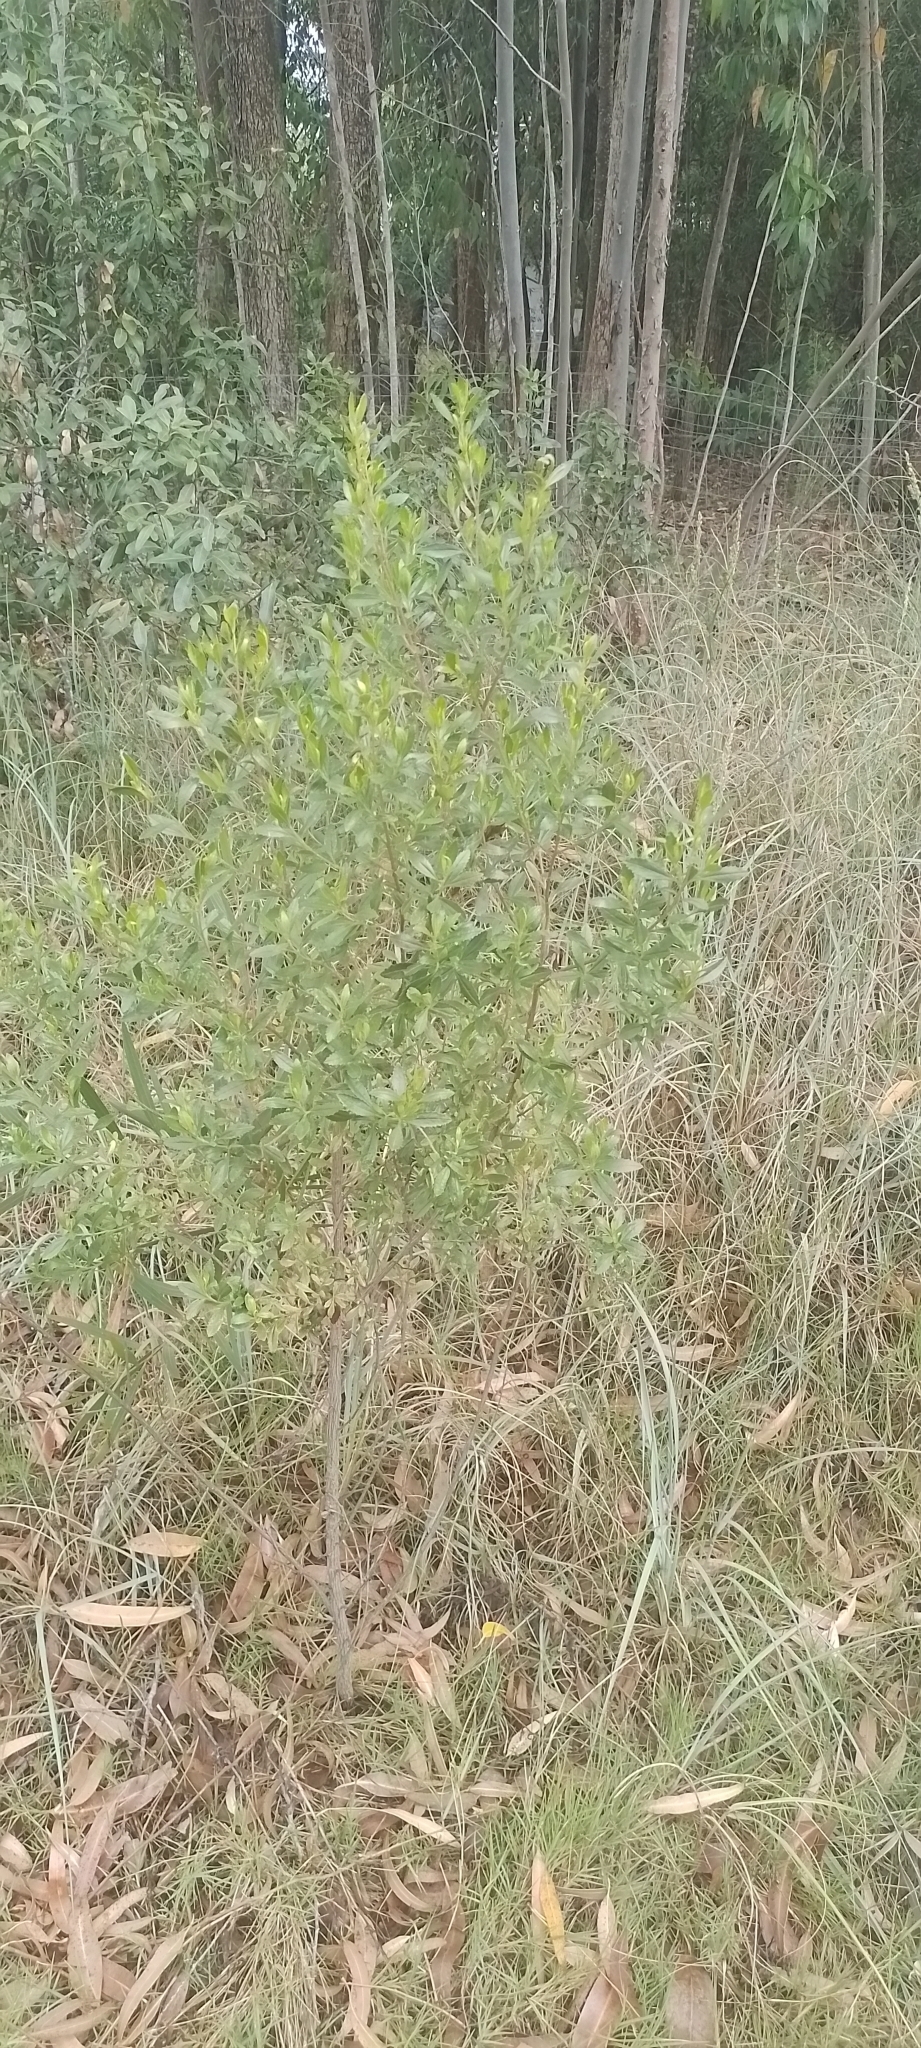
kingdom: Plantae
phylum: Tracheophyta
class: Magnoliopsida
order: Asterales
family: Asteraceae
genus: Baccharis
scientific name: Baccharis microdonta
